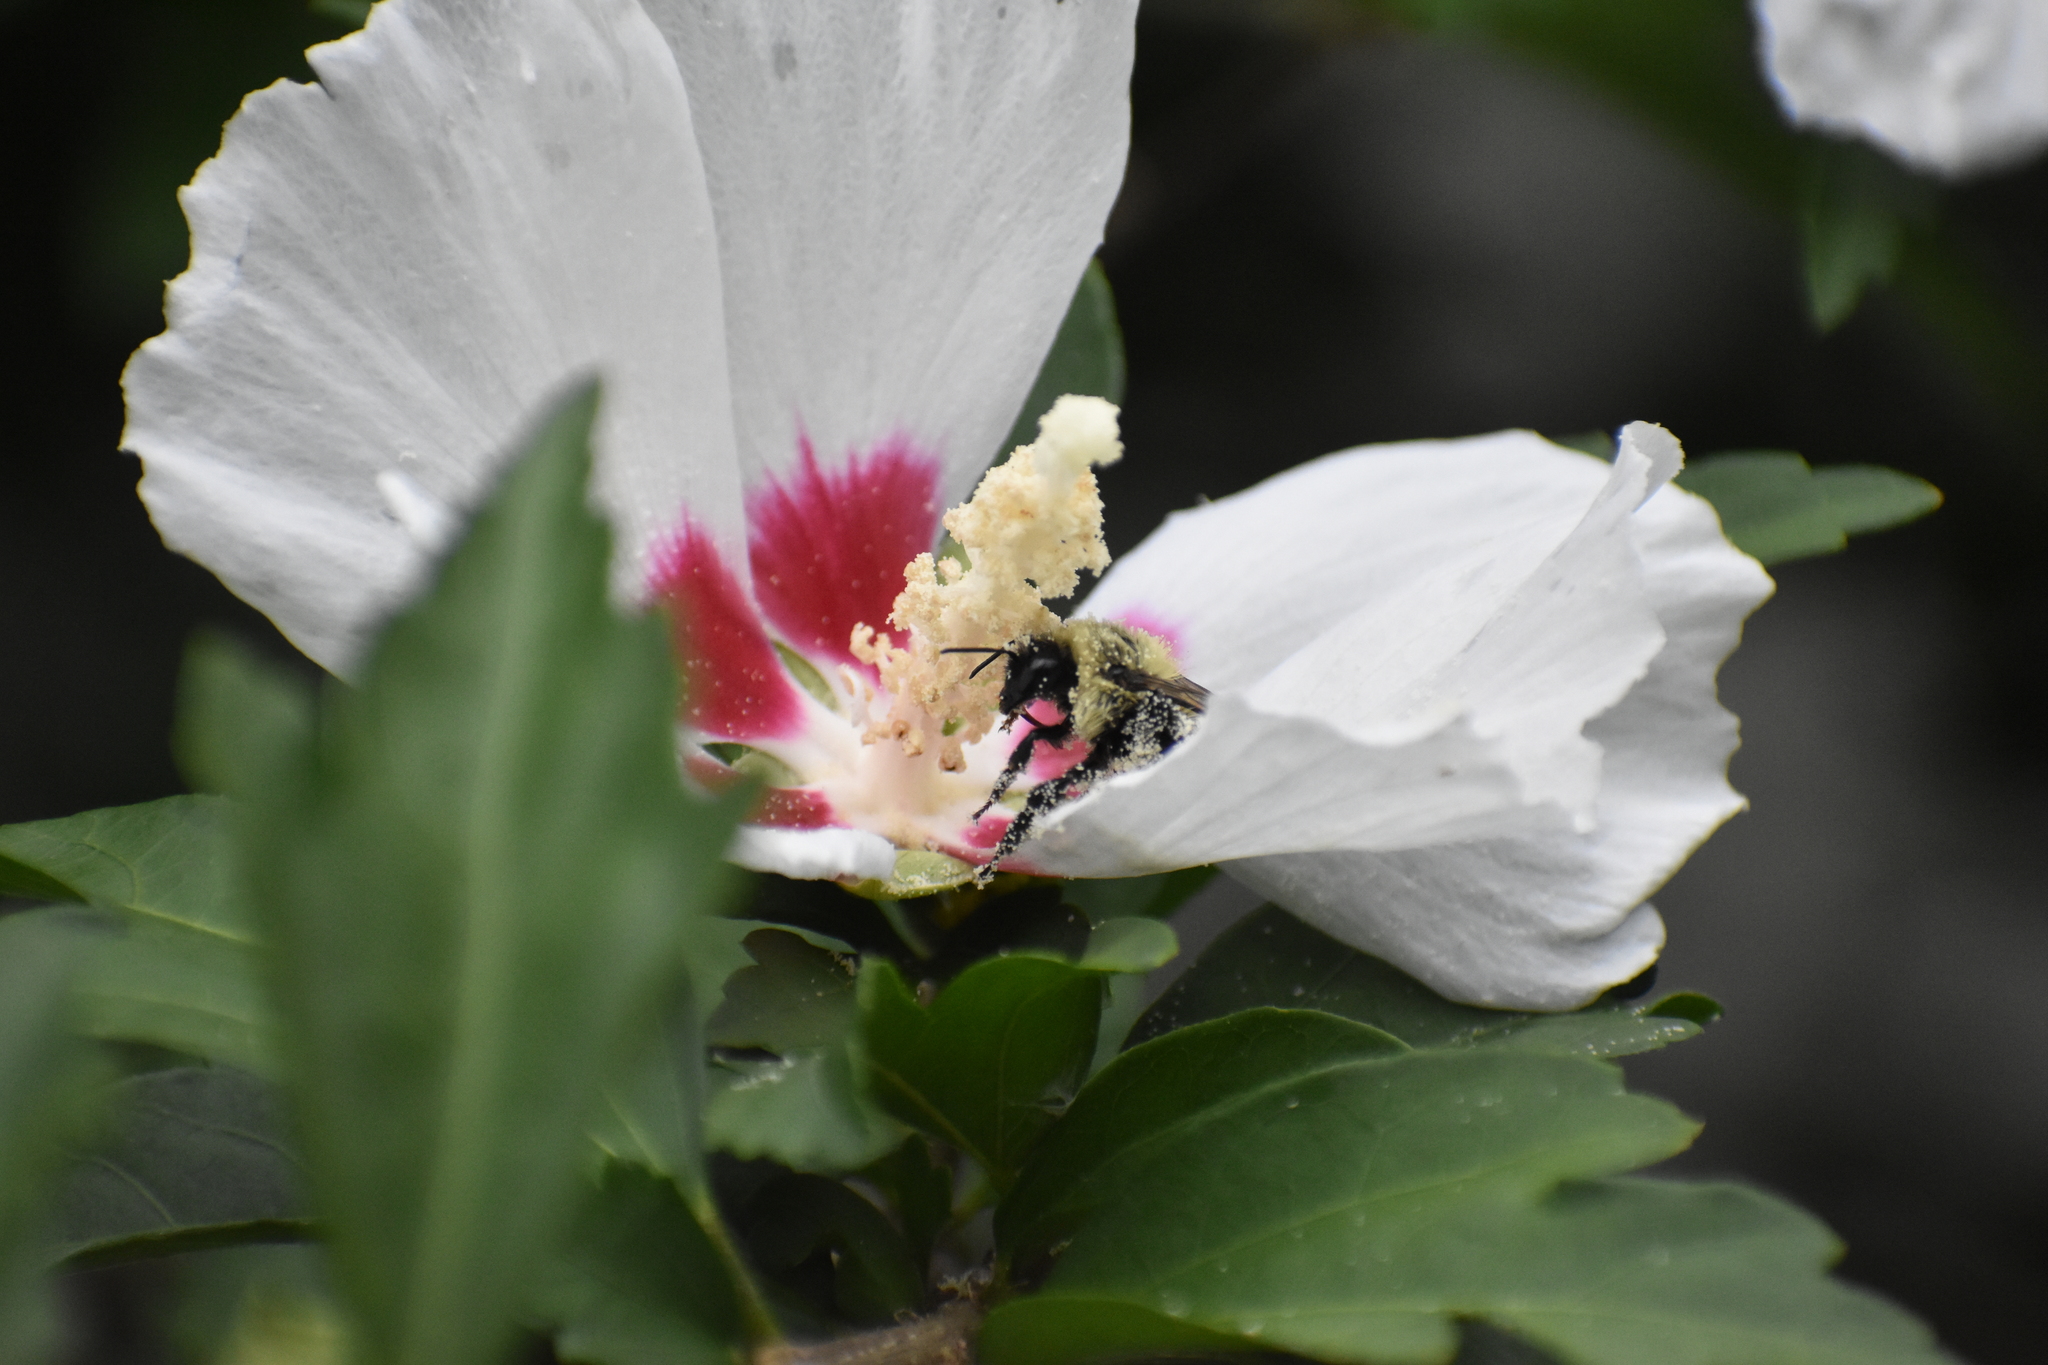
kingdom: Animalia
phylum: Arthropoda
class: Insecta
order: Hymenoptera
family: Apidae
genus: Bombus
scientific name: Bombus
